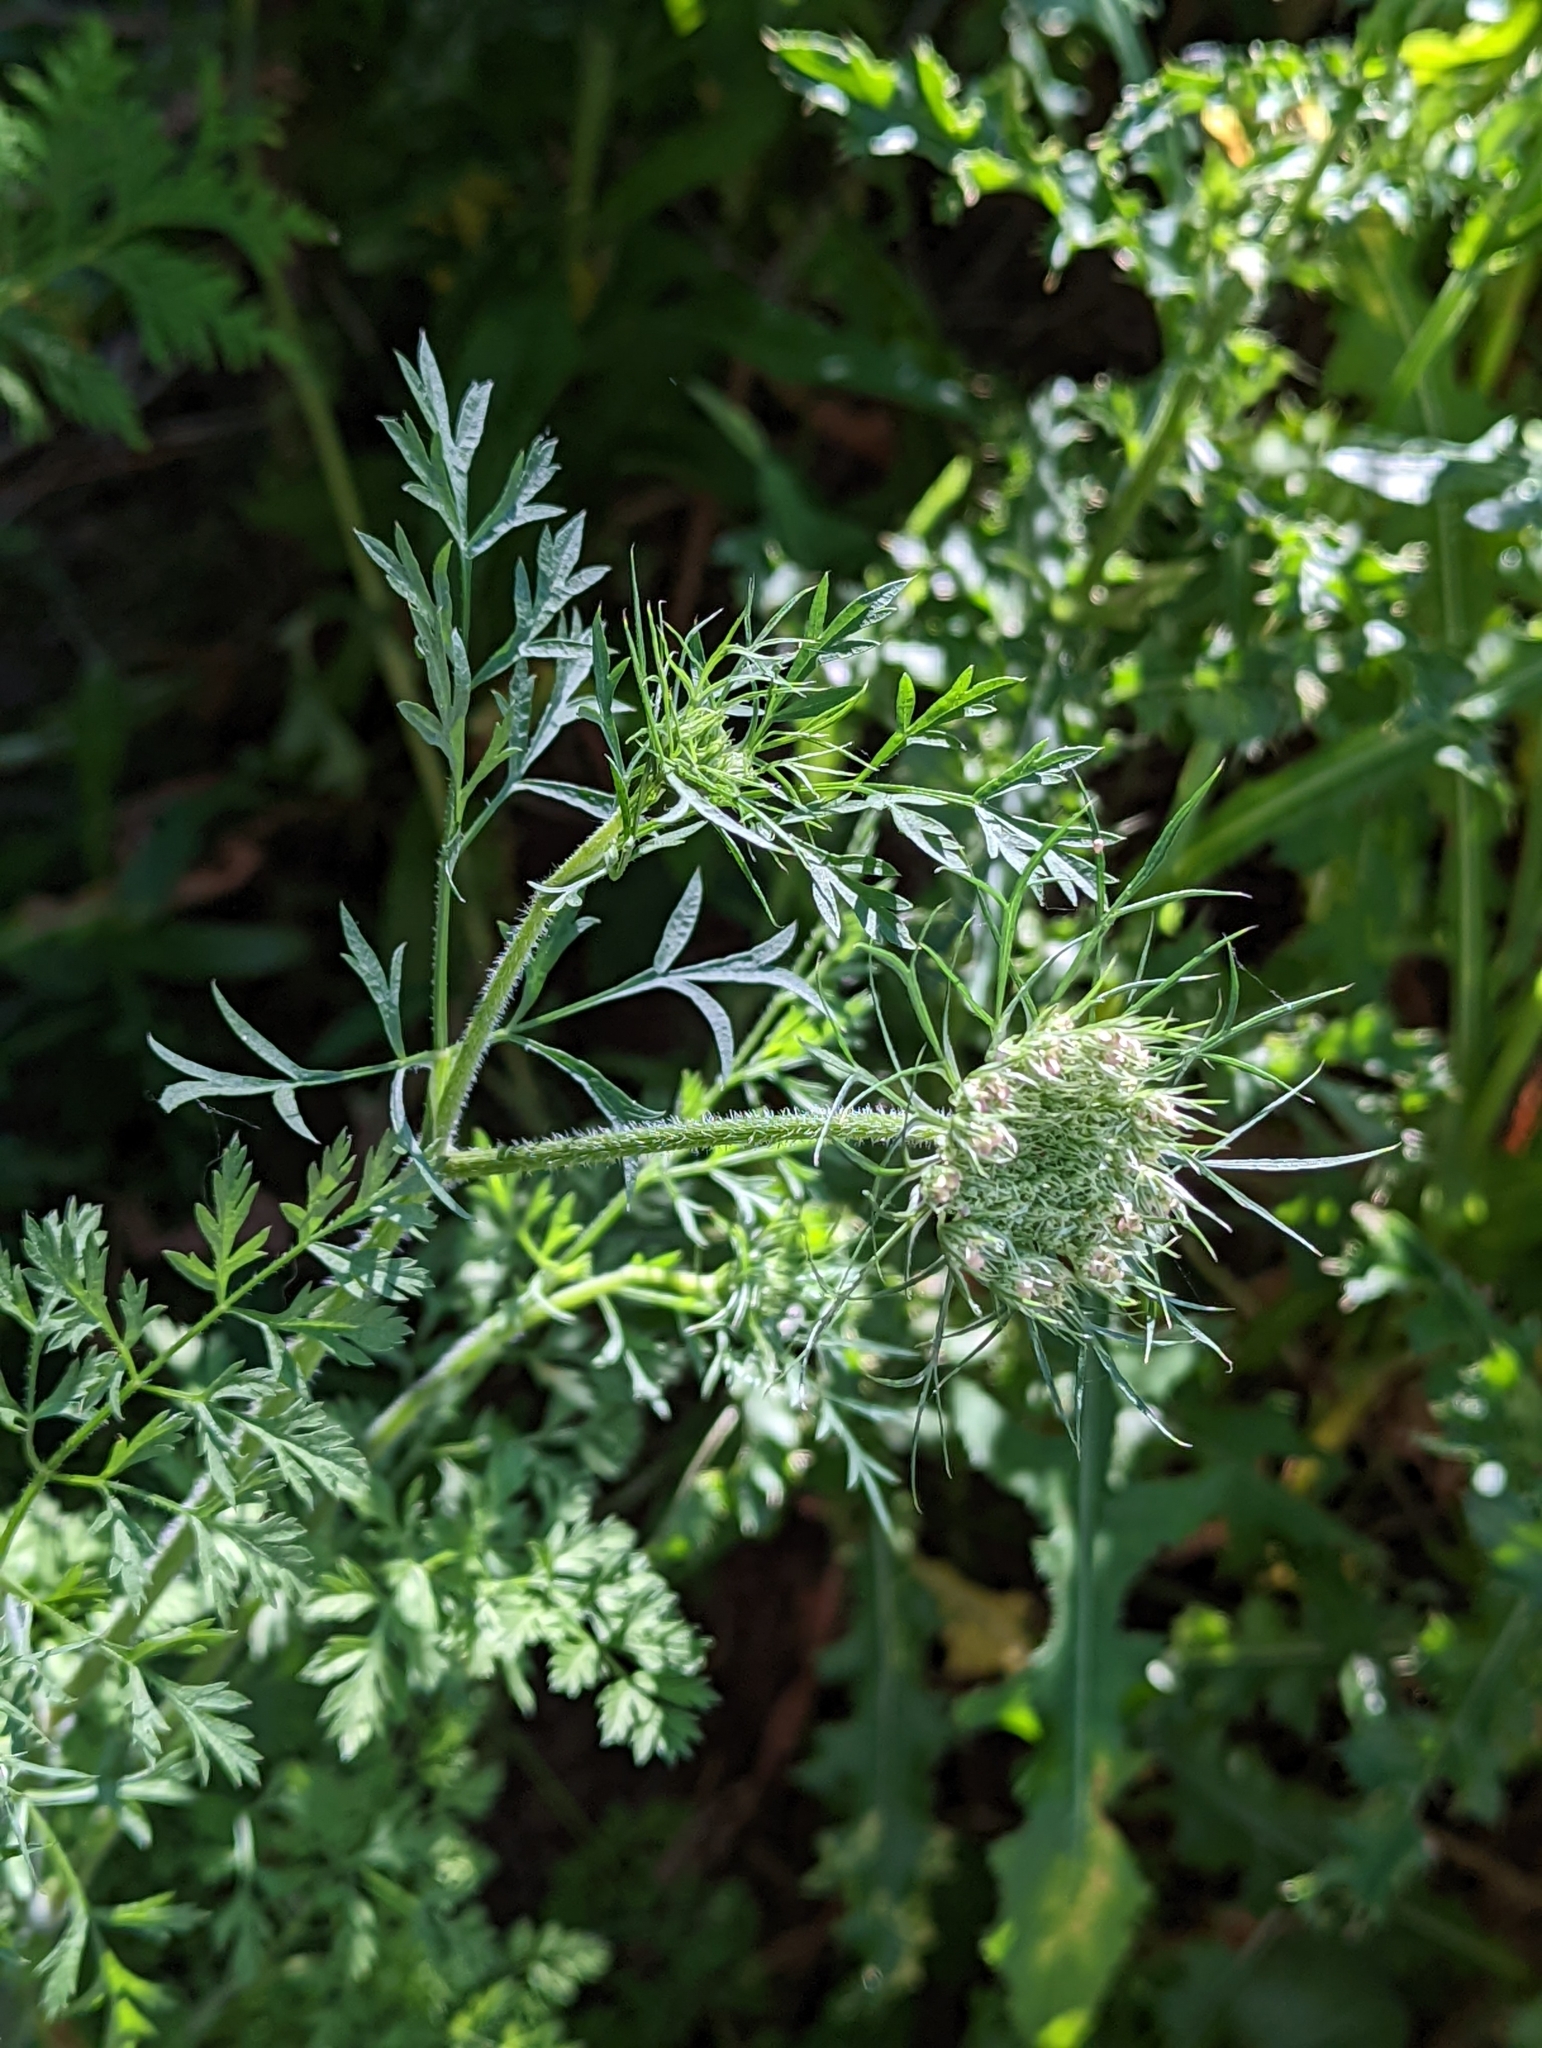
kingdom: Plantae
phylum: Tracheophyta
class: Magnoliopsida
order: Apiales
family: Apiaceae
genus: Daucus
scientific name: Daucus carota
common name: Wild carrot
